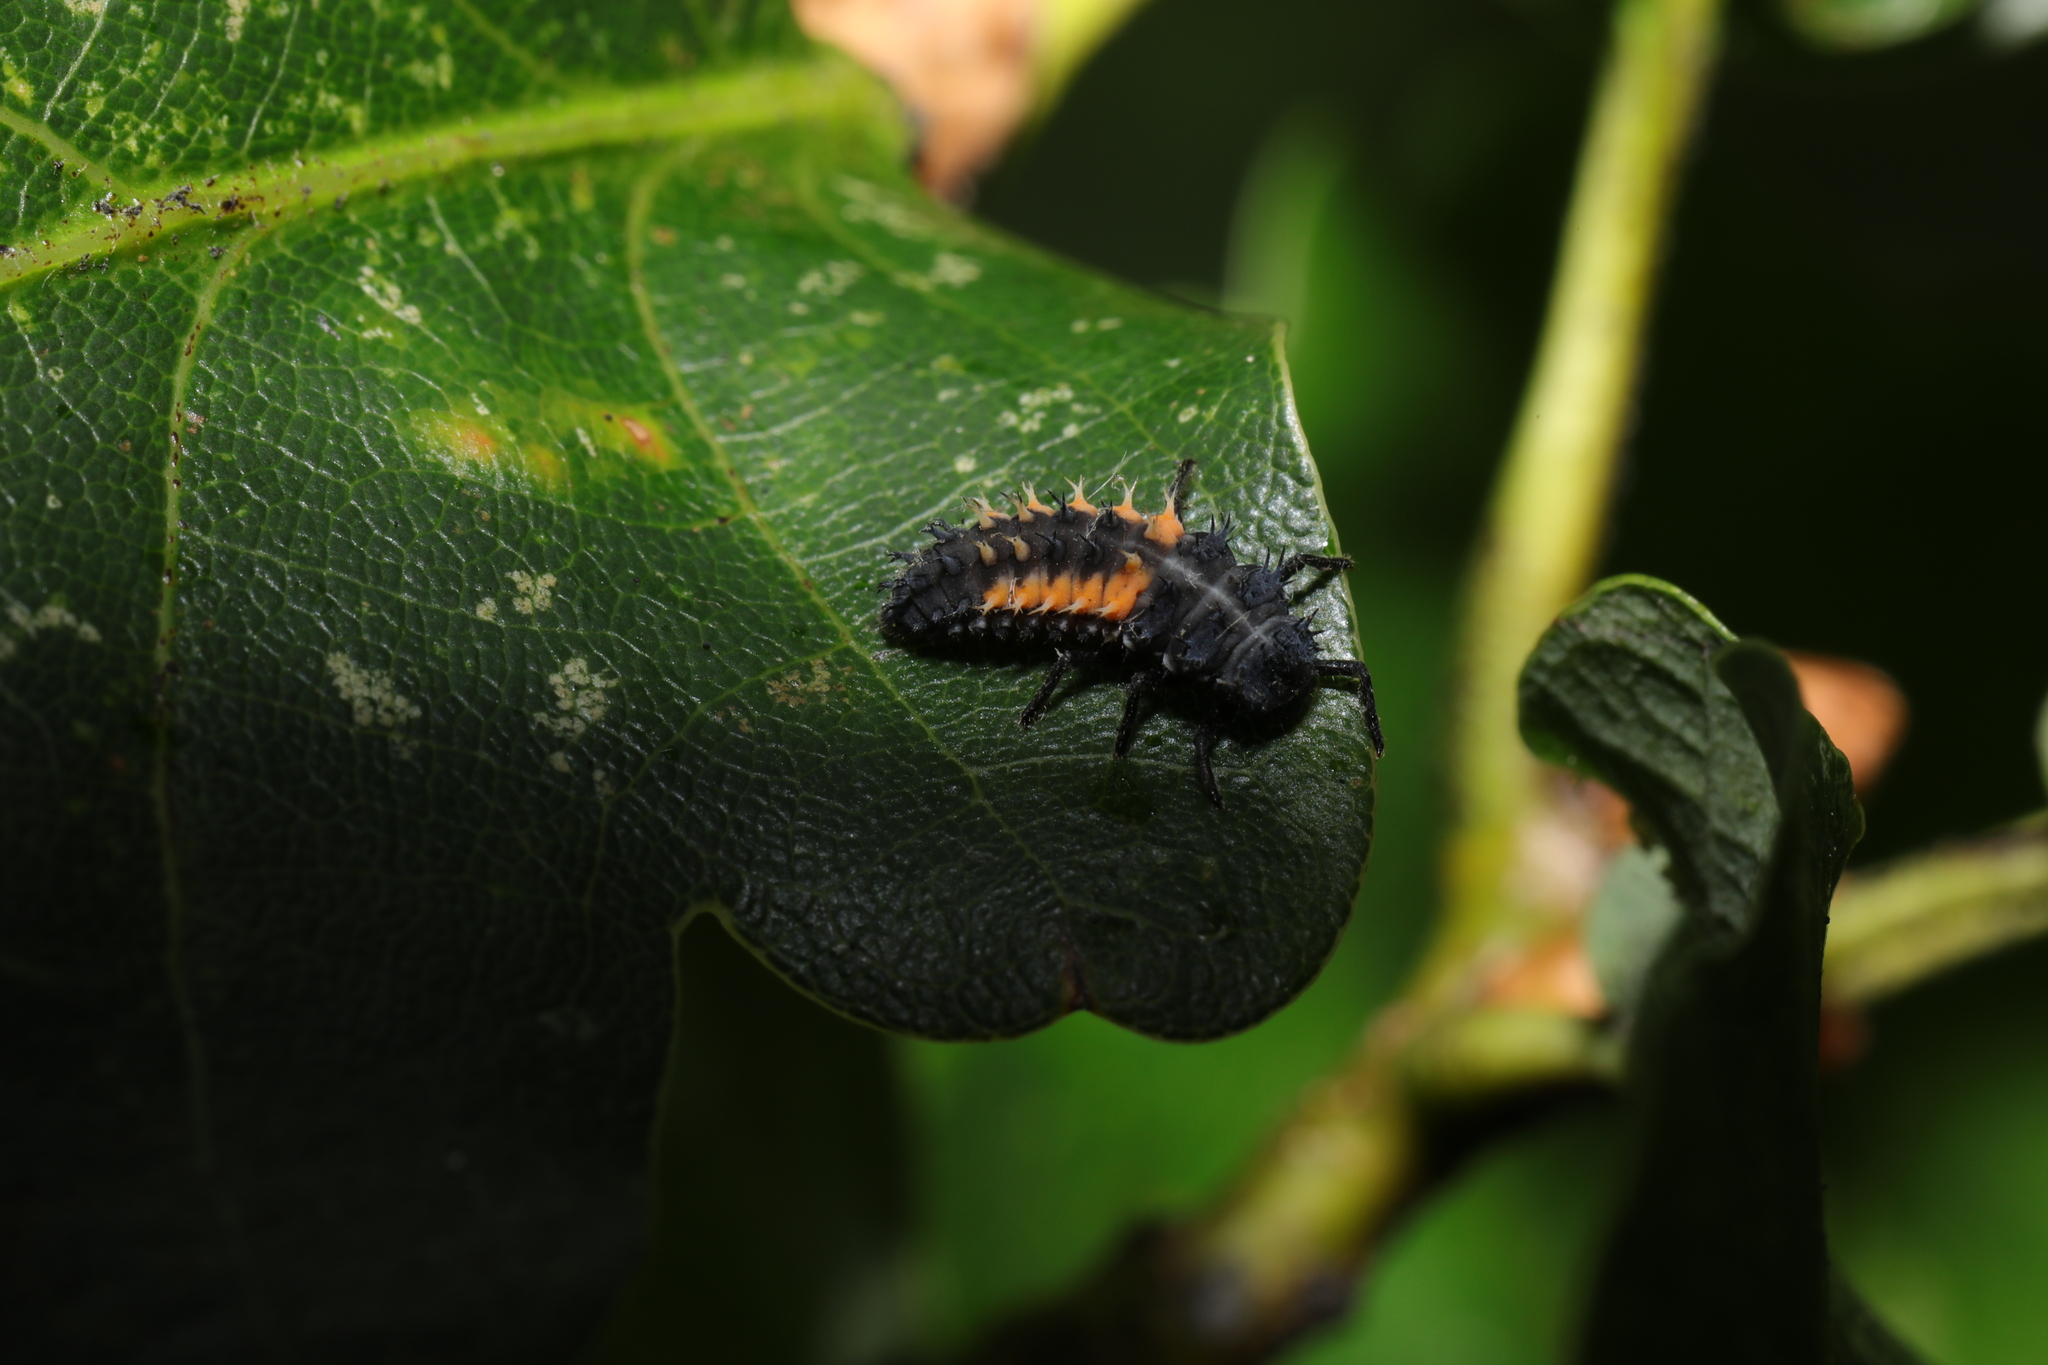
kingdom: Animalia
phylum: Arthropoda
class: Insecta
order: Coleoptera
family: Coccinellidae
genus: Harmonia
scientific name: Harmonia axyridis
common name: Harlequin ladybird
